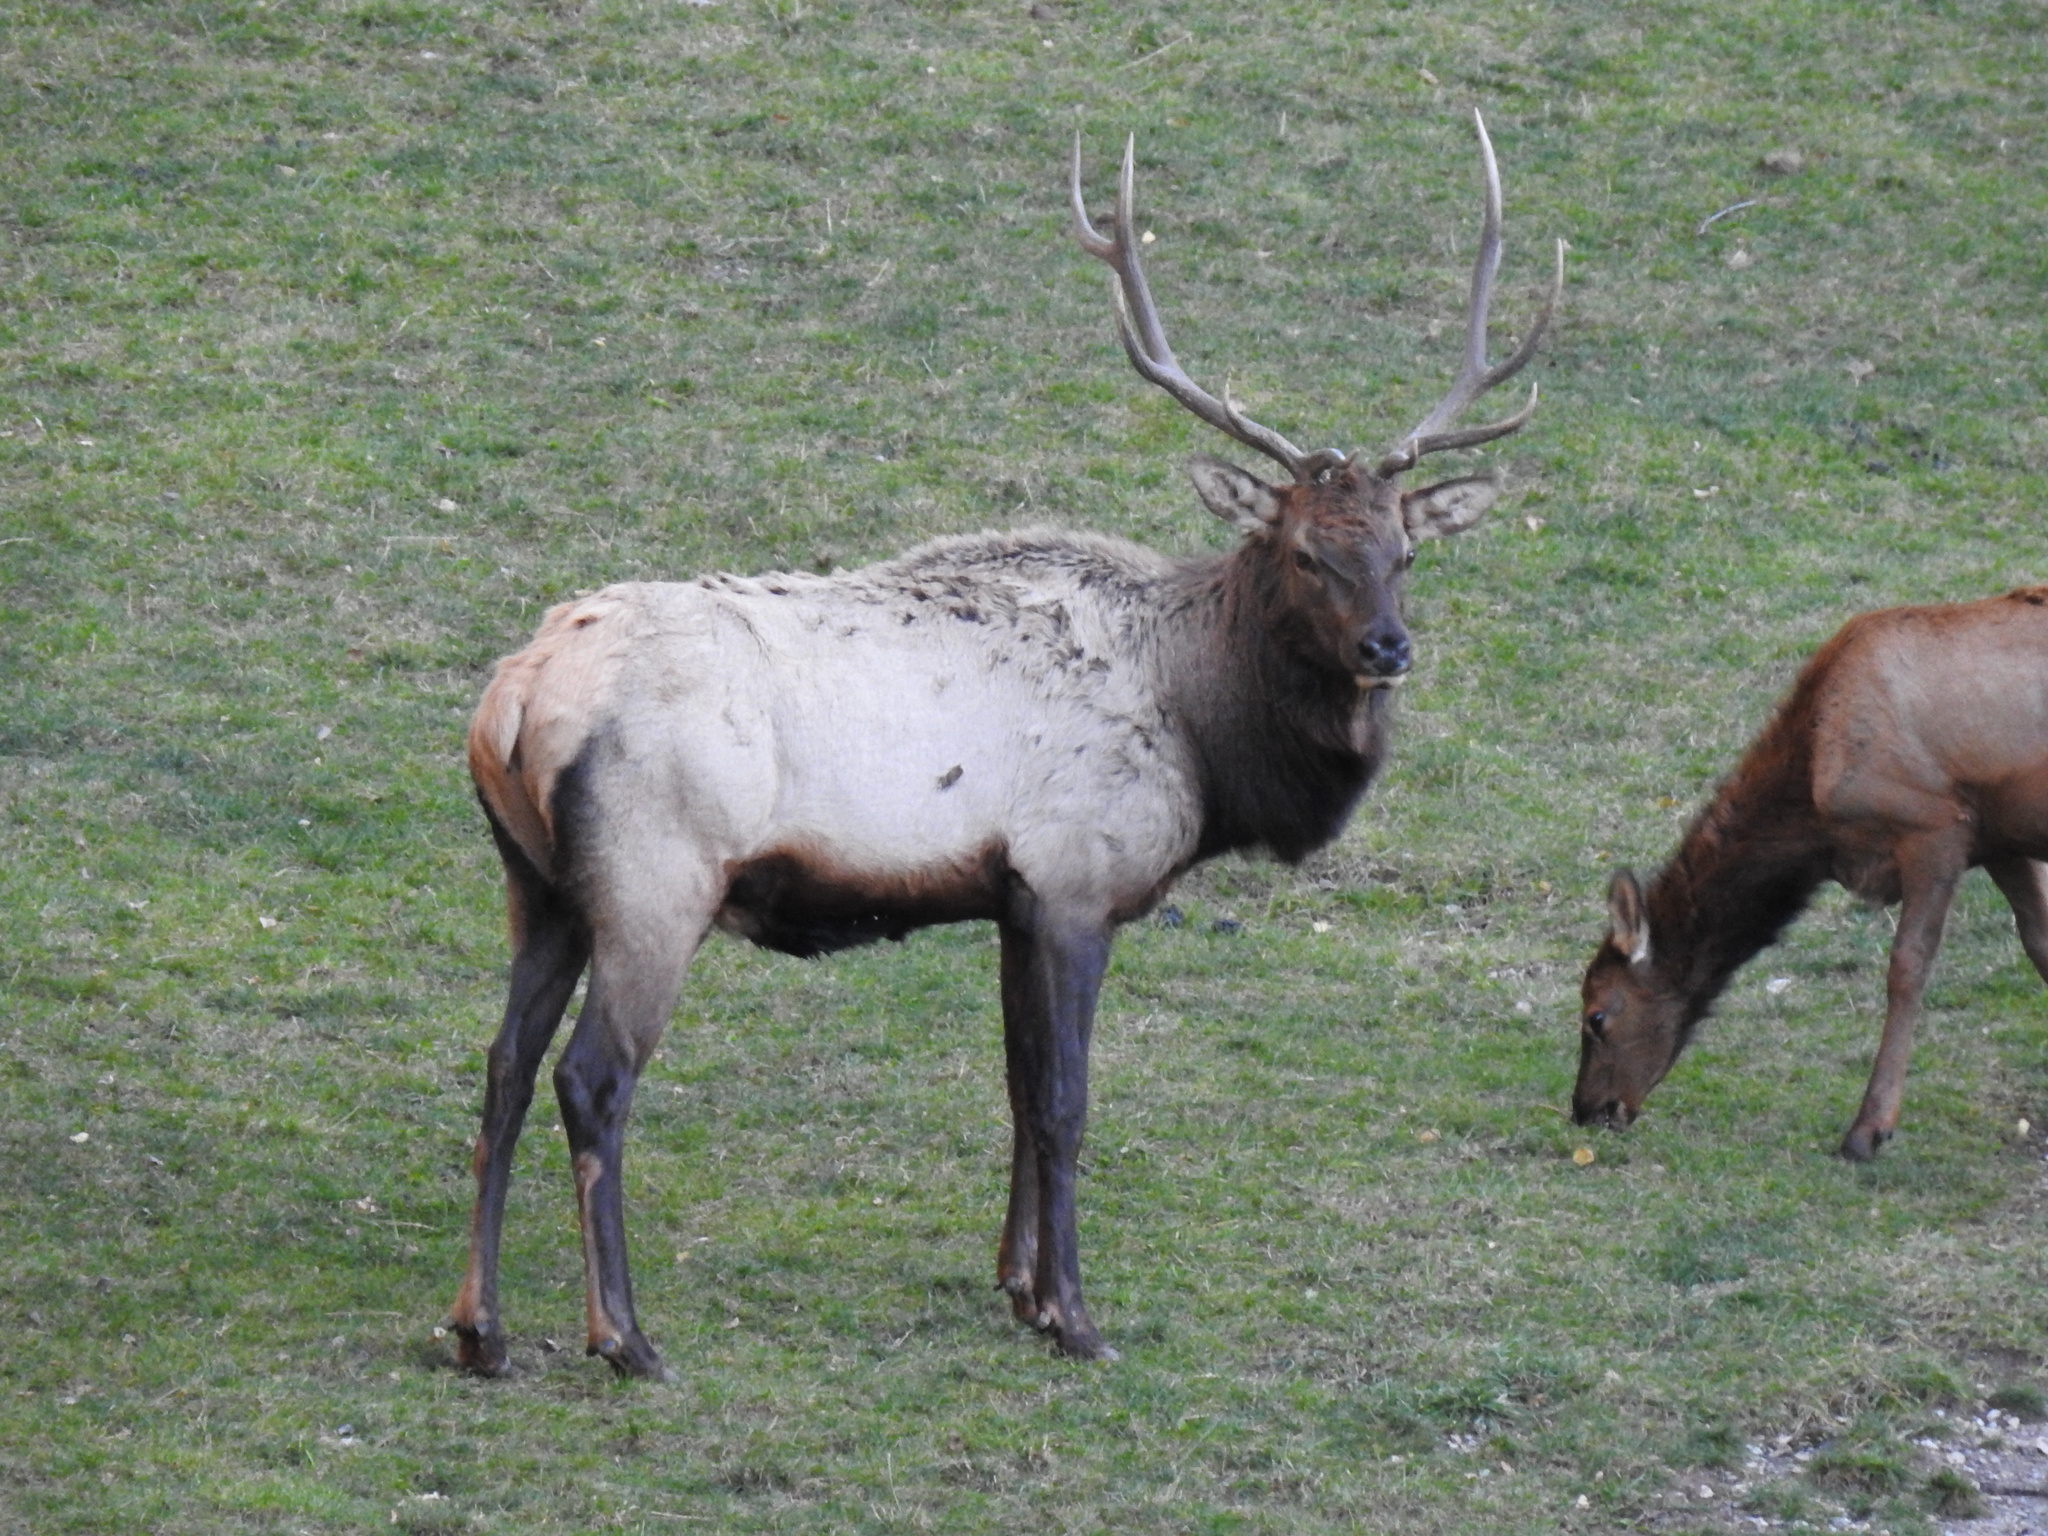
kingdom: Animalia
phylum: Chordata
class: Mammalia
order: Artiodactyla
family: Cervidae
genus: Cervus
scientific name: Cervus elaphus
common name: Red deer
